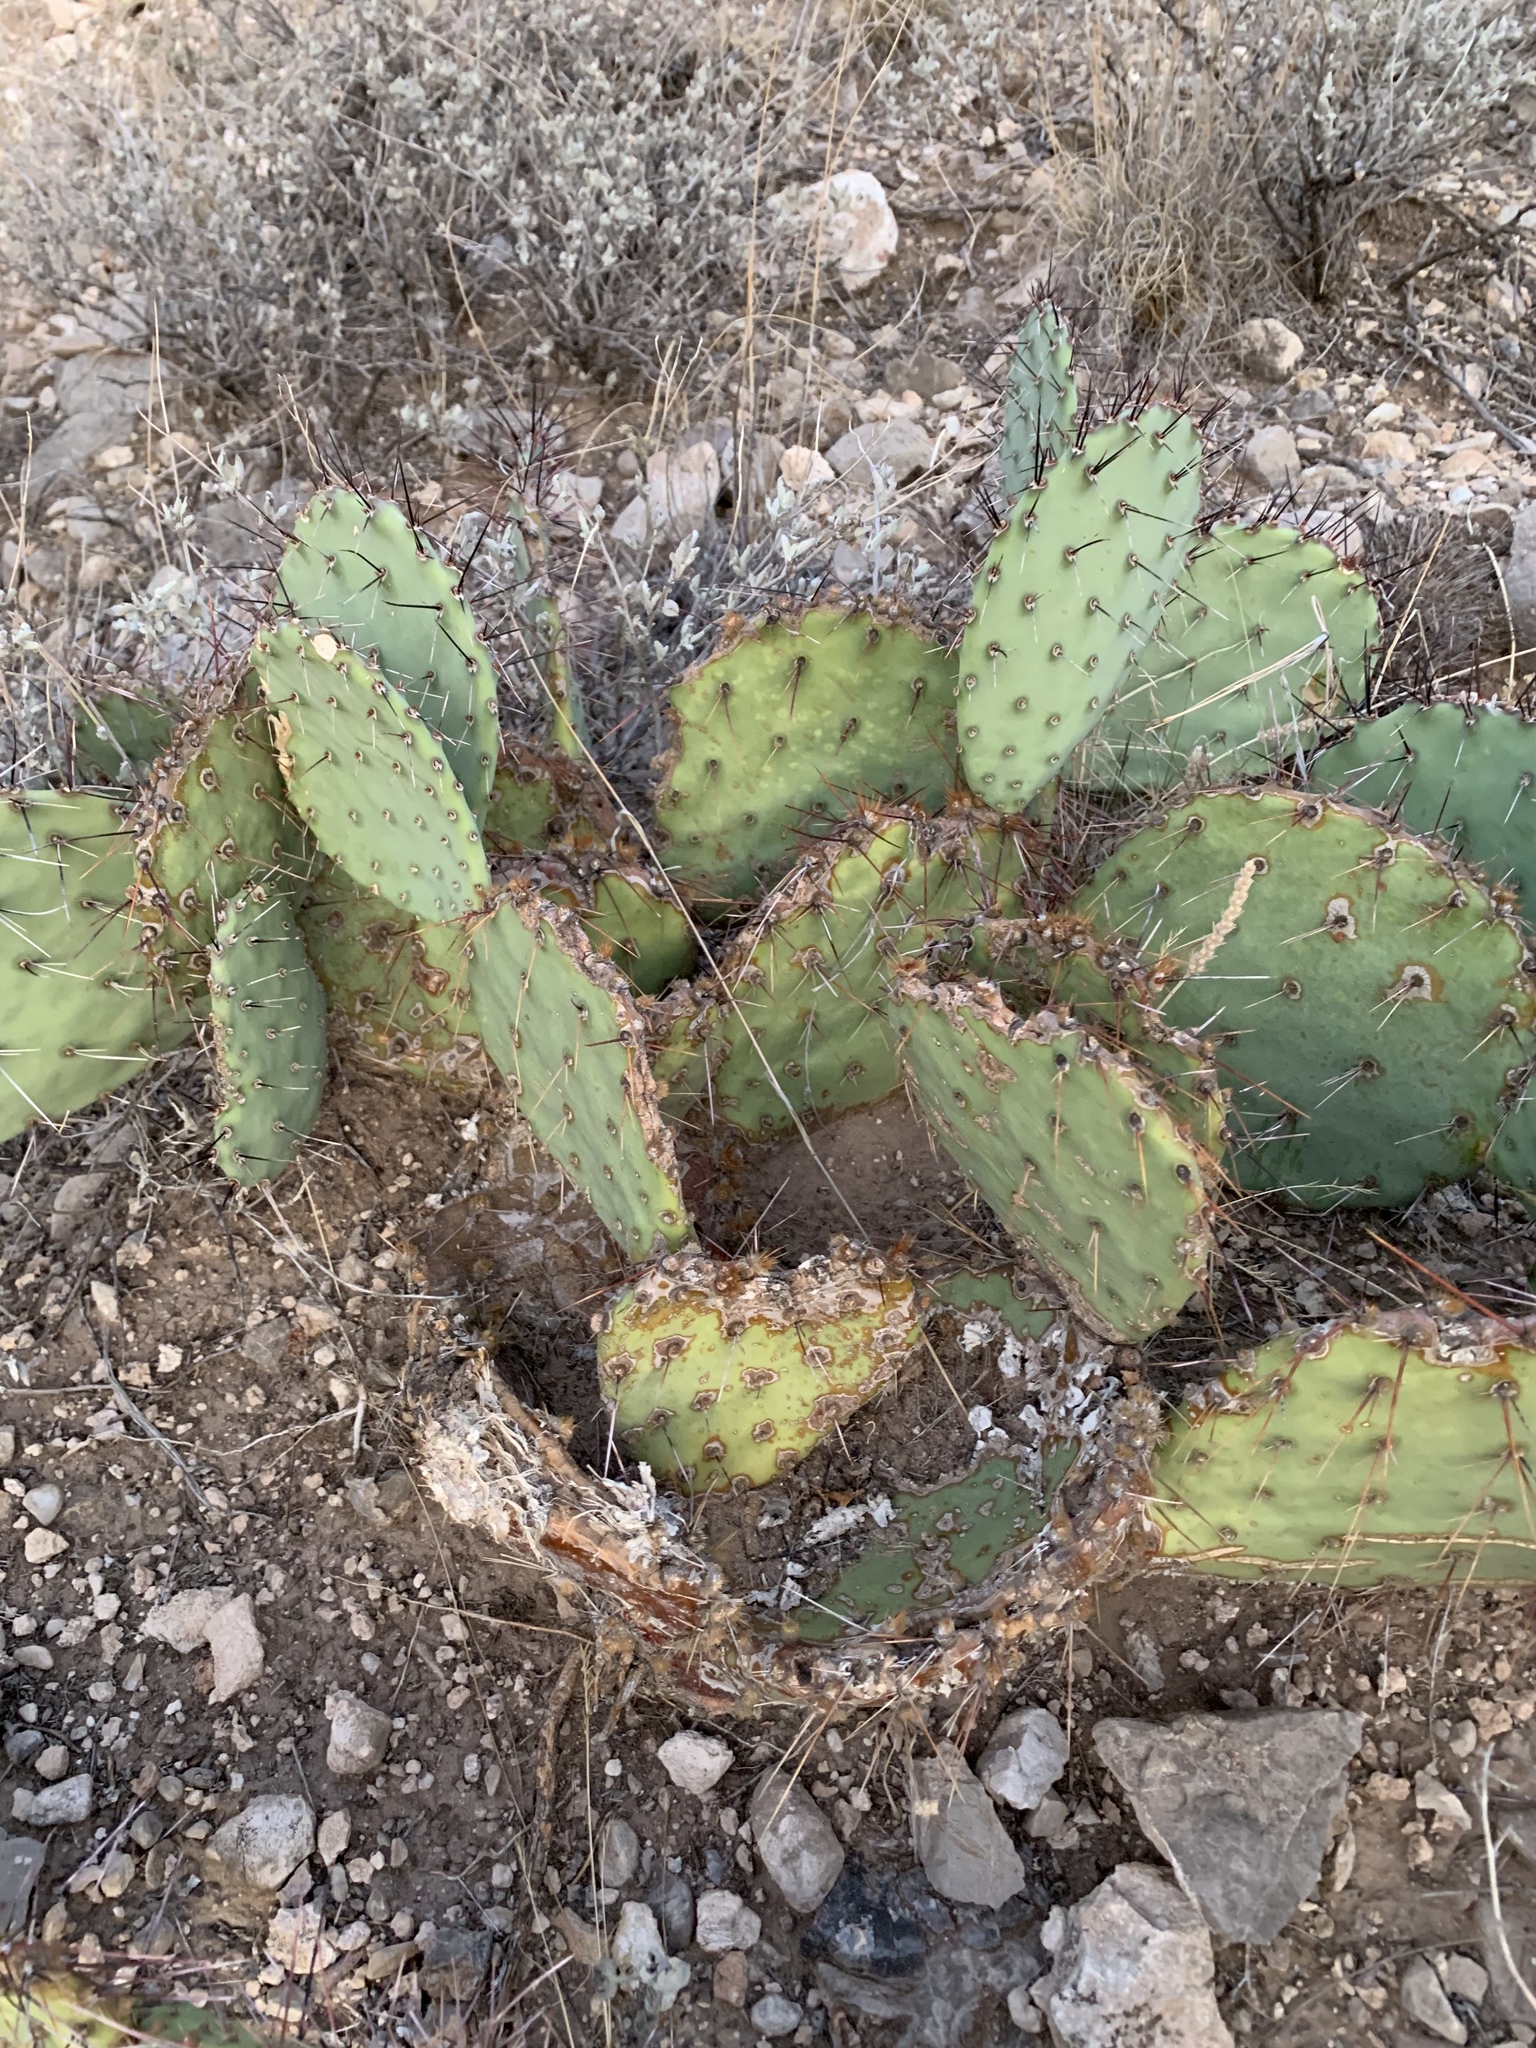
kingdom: Plantae
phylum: Tracheophyta
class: Magnoliopsida
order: Caryophyllales
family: Cactaceae
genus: Opuntia
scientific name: Opuntia phaeacantha
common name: New mexico prickly-pear
